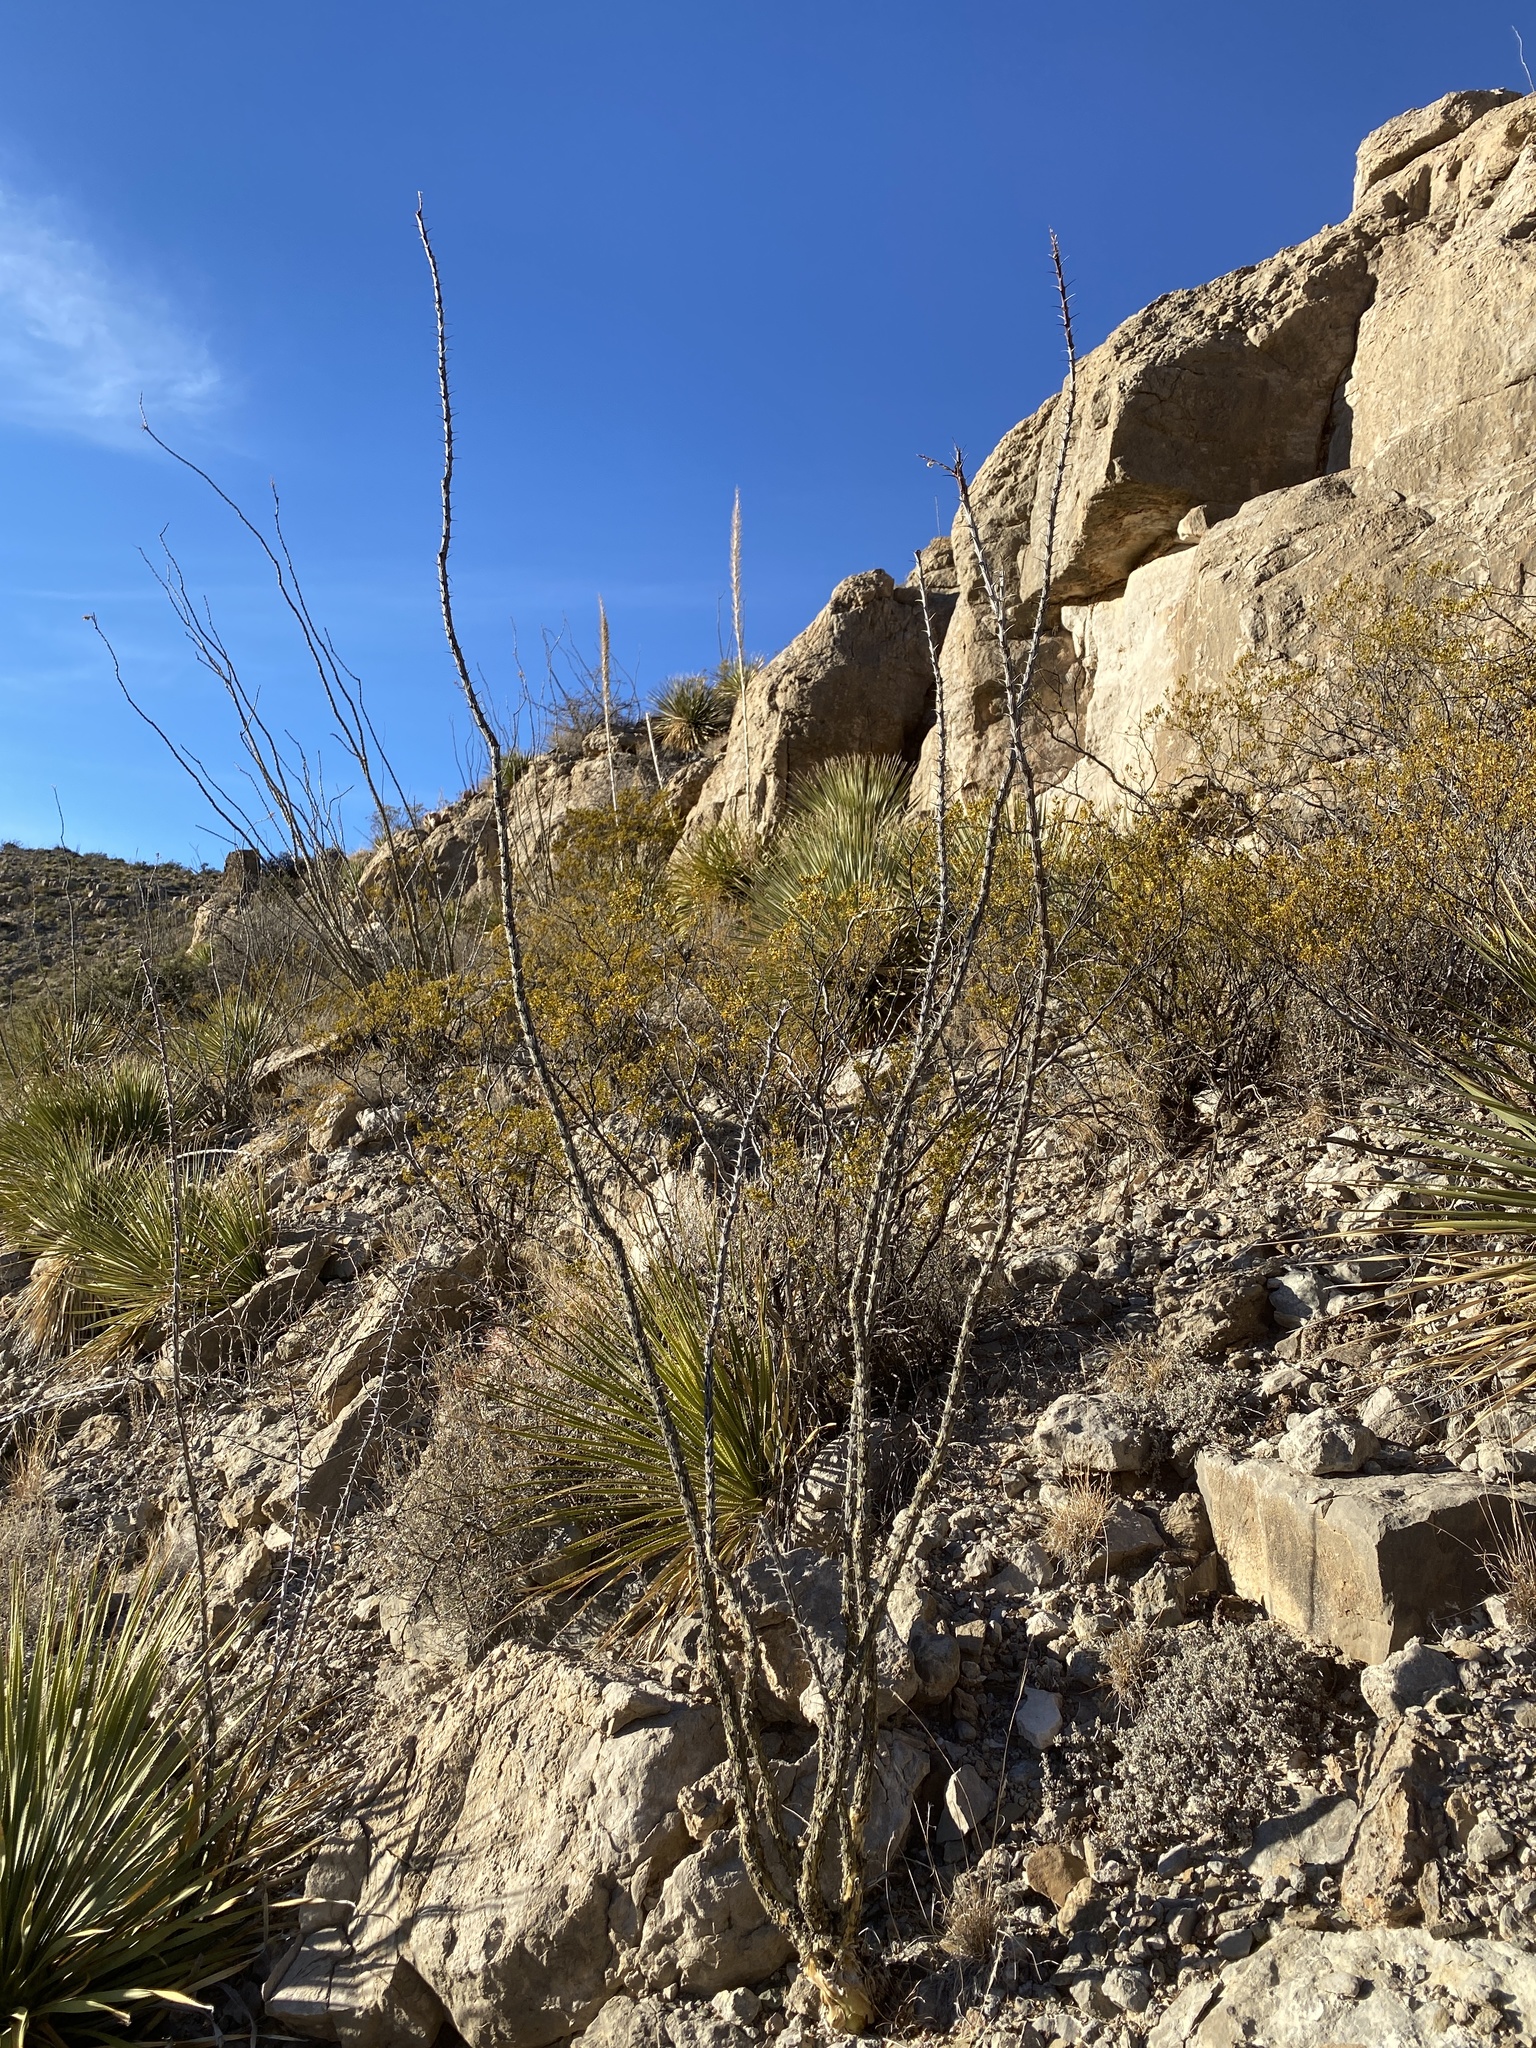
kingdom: Plantae
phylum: Tracheophyta
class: Magnoliopsida
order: Ericales
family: Fouquieriaceae
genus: Fouquieria
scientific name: Fouquieria splendens
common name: Vine-cactus
